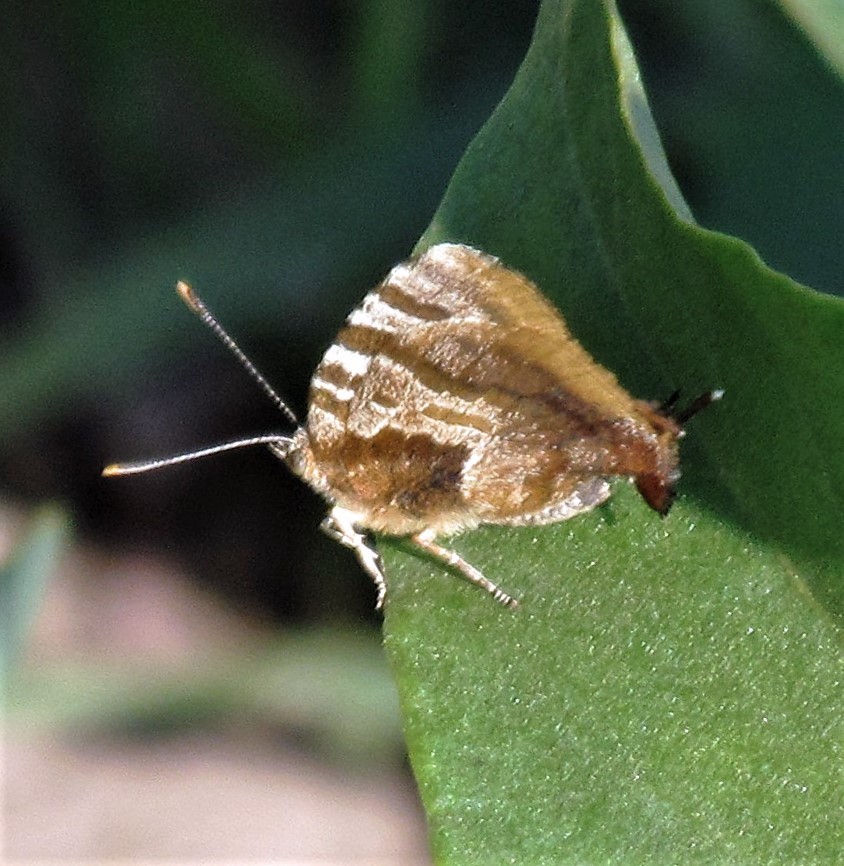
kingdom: Animalia
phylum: Arthropoda
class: Insecta
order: Lepidoptera
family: Lycaenidae
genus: Arawacus
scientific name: Arawacus ellida
